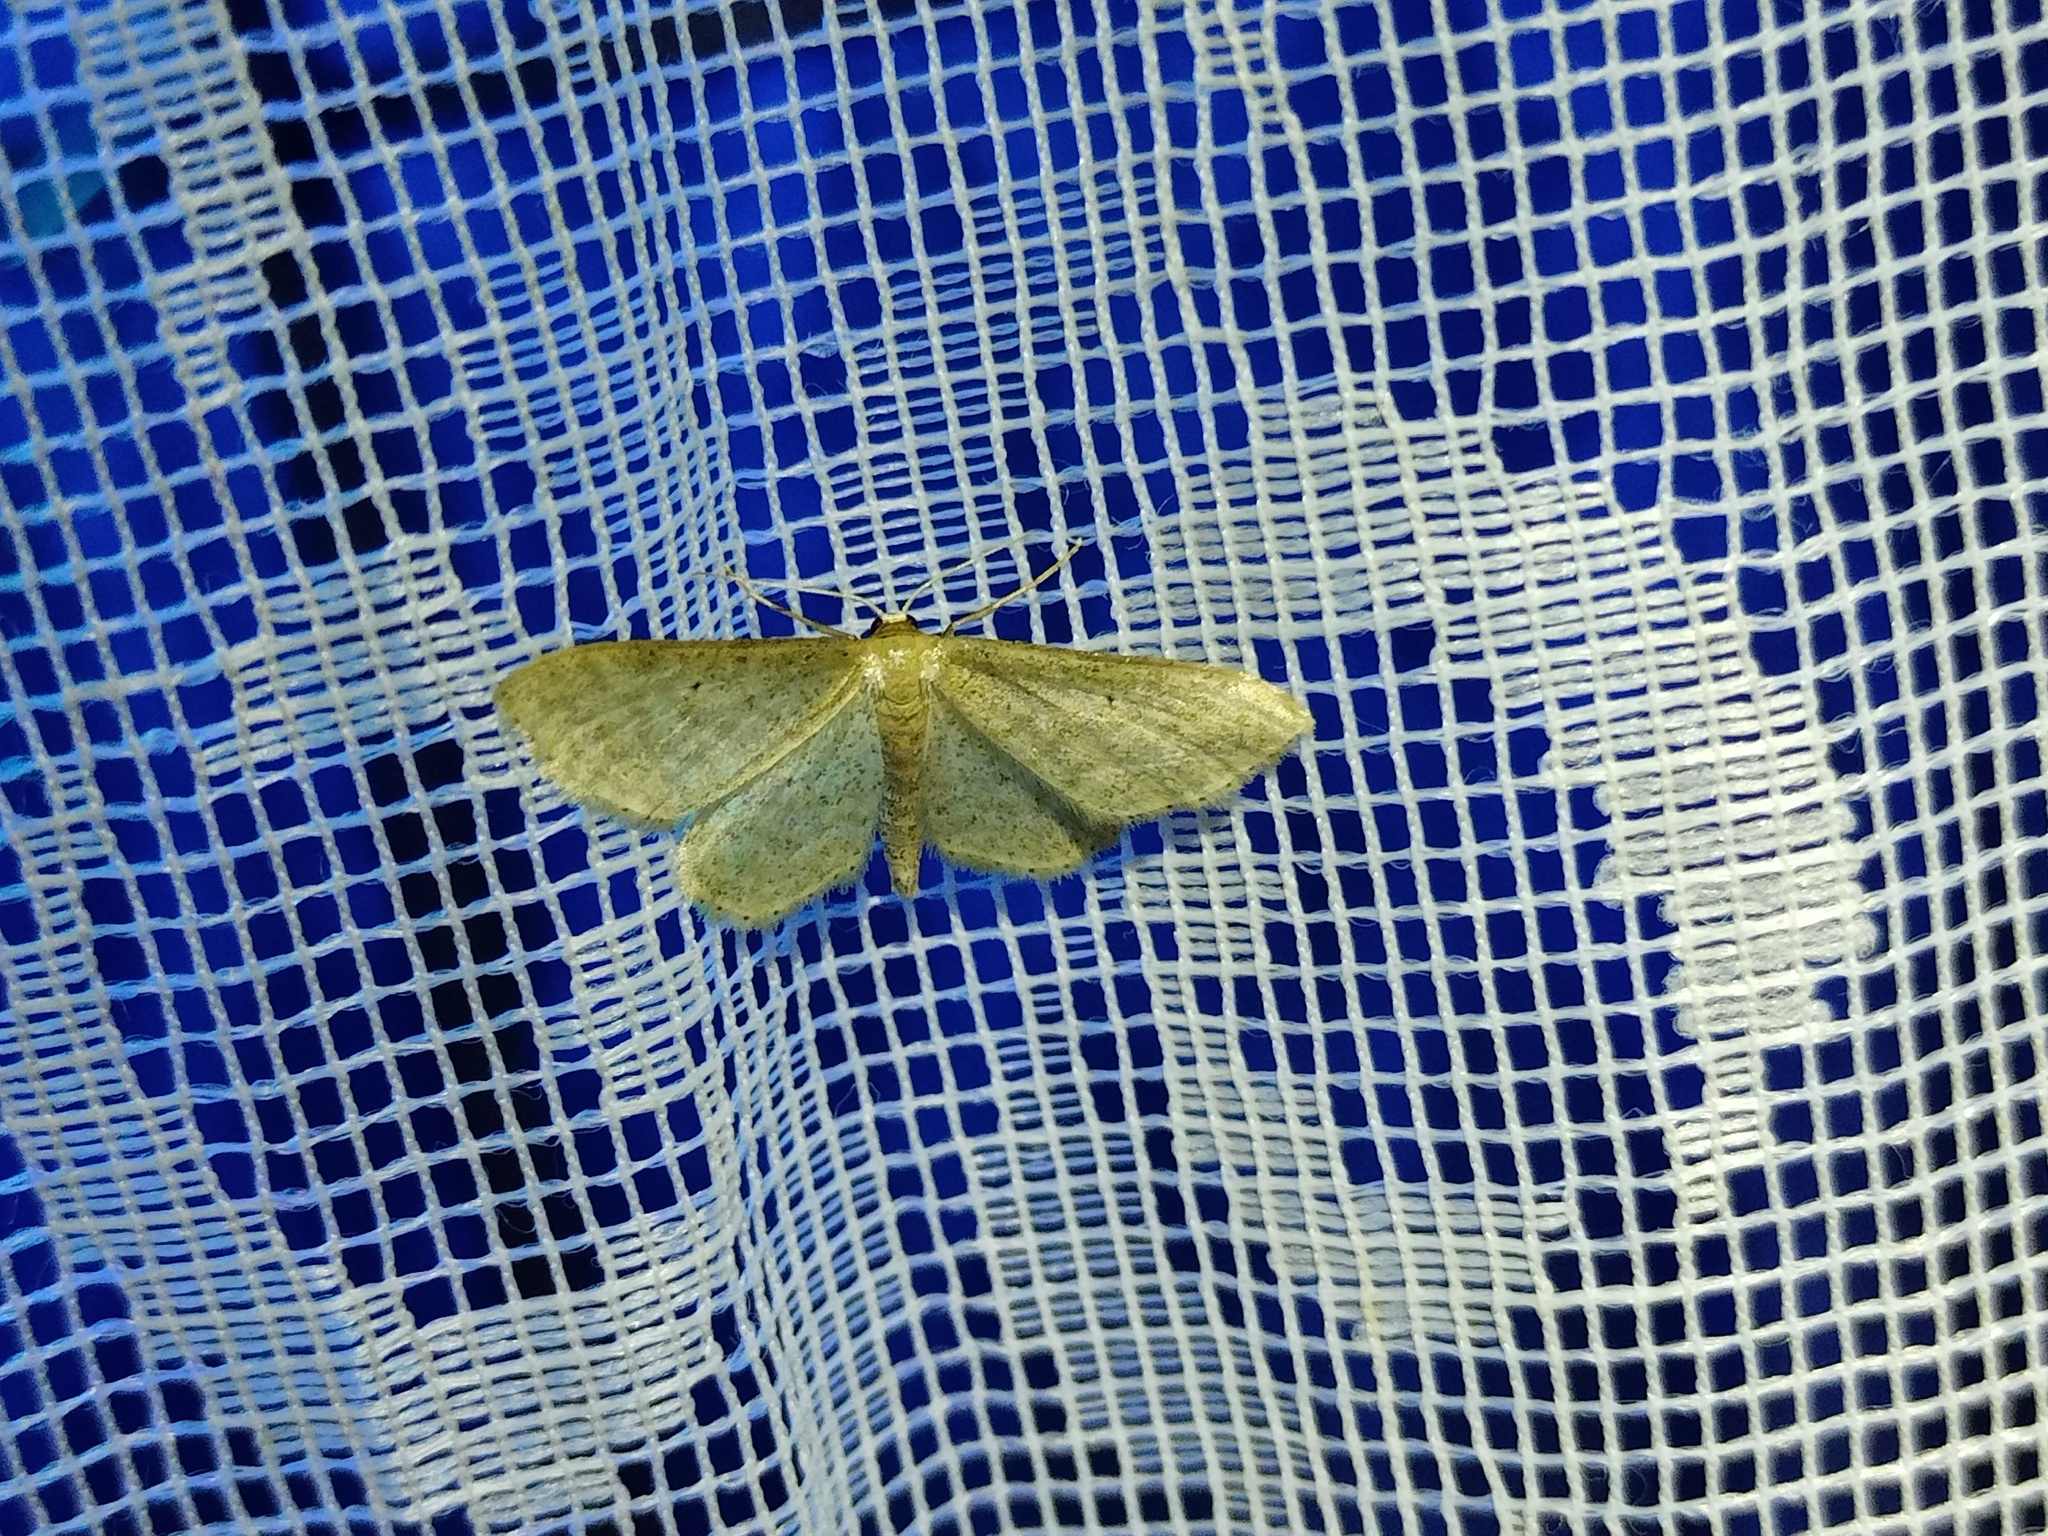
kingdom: Animalia
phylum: Arthropoda
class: Insecta
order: Lepidoptera
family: Geometridae
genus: Idaea
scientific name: Idaea sylvestraria
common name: Dotted borded wave
